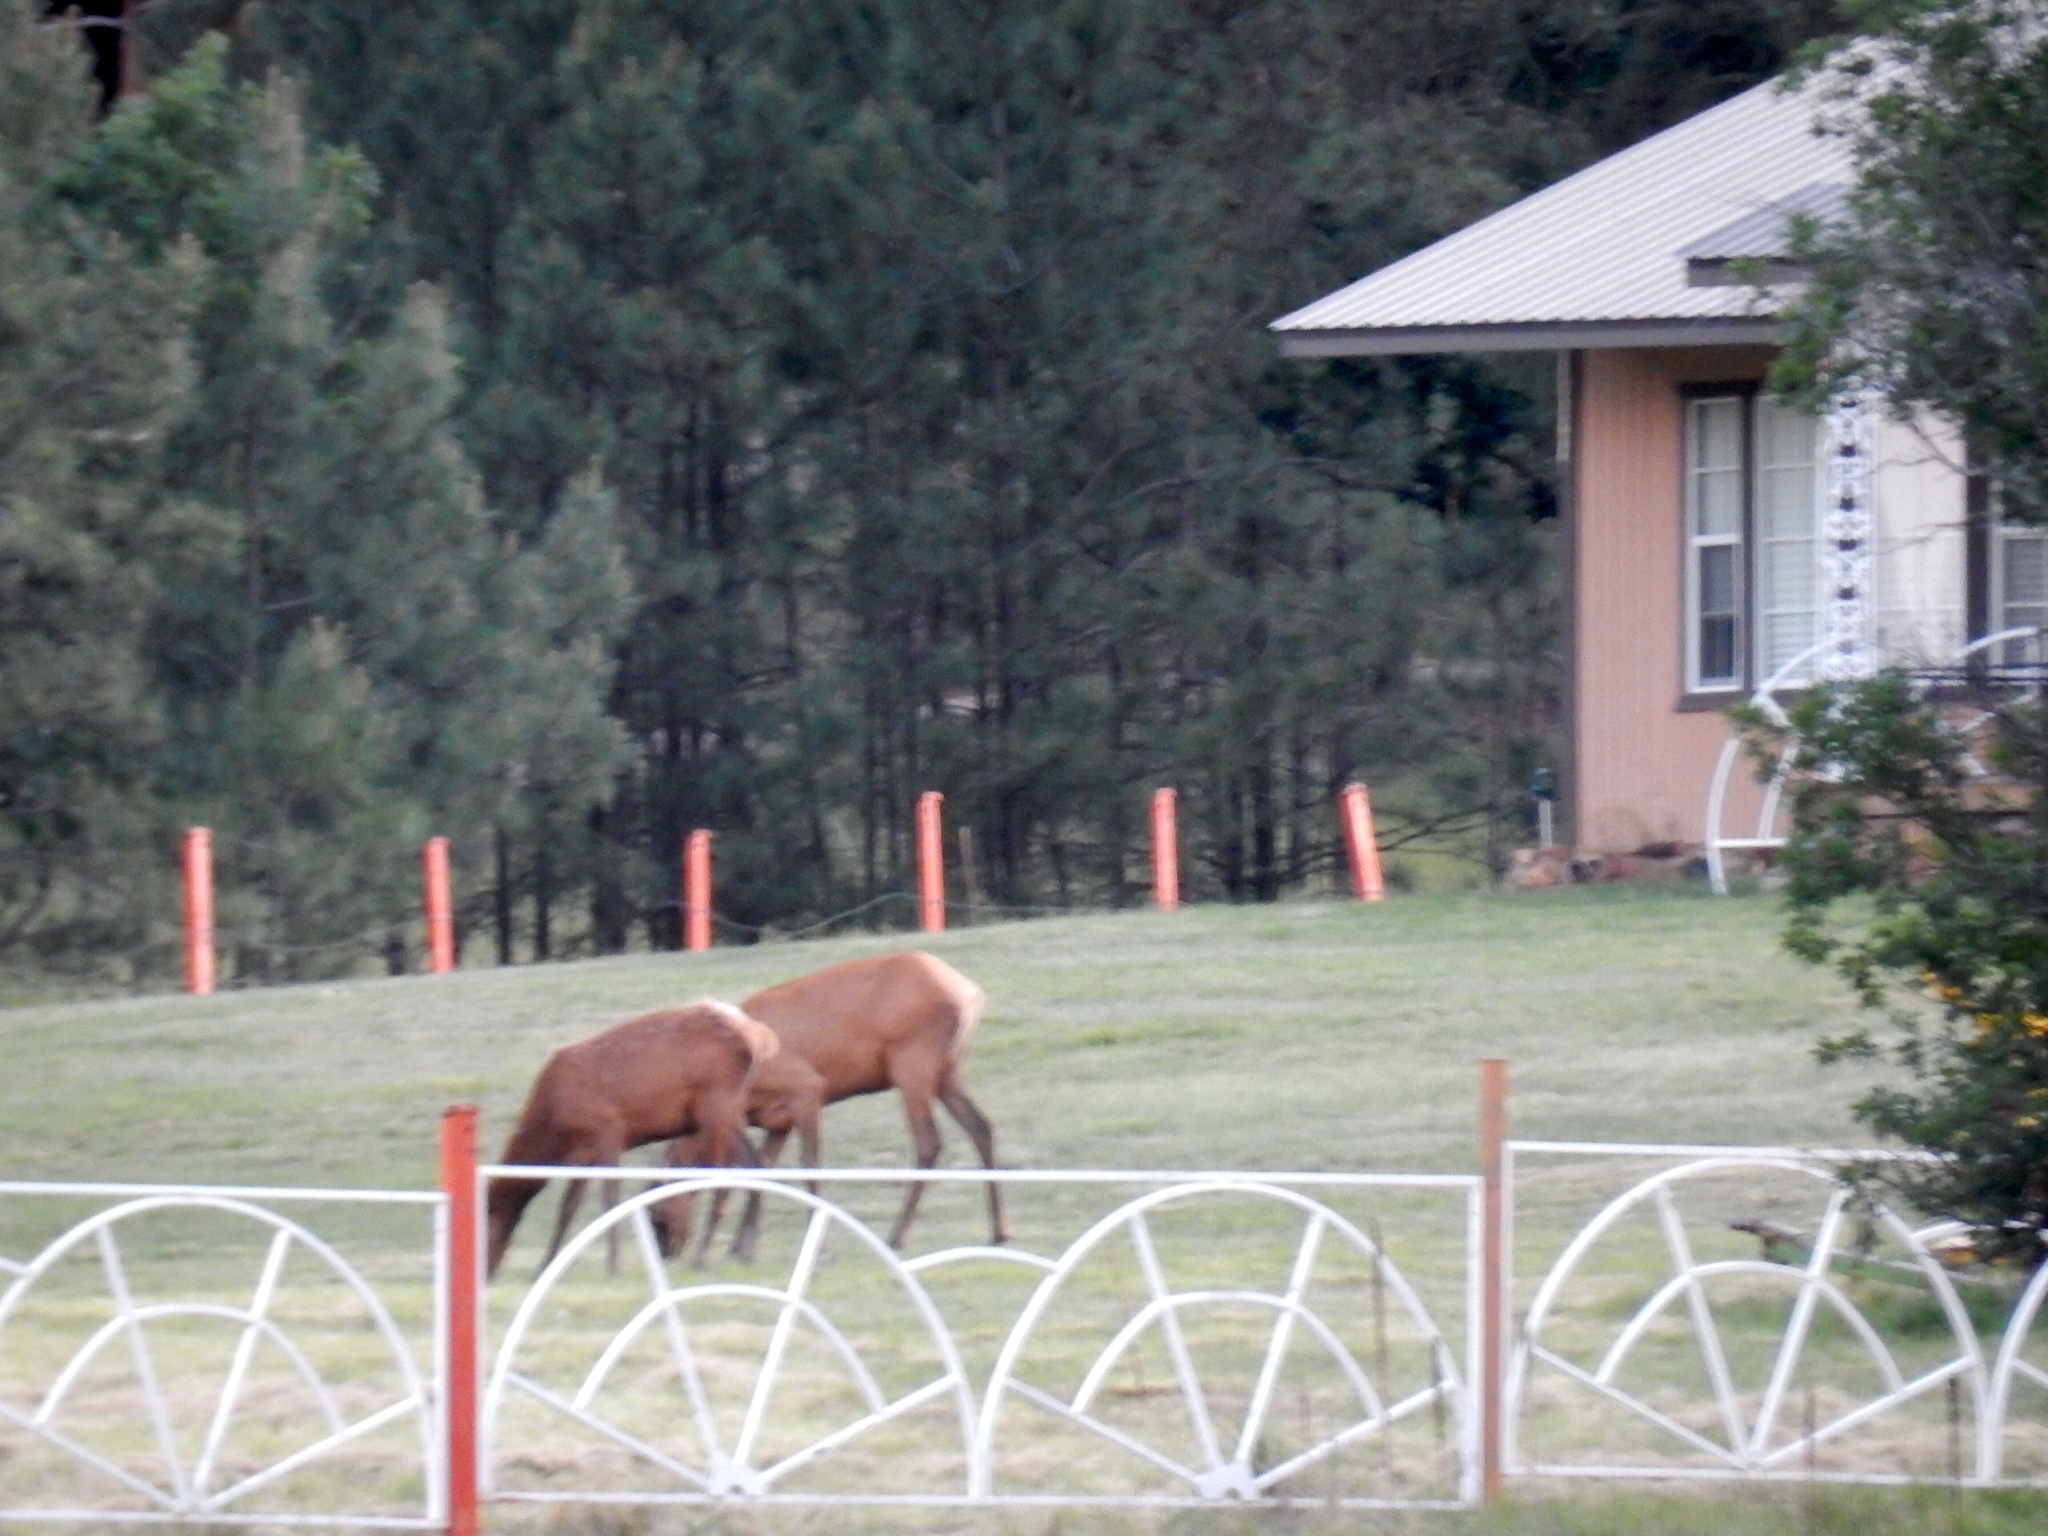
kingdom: Animalia
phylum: Chordata
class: Mammalia
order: Artiodactyla
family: Cervidae
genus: Cervus
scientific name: Cervus elaphus
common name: Red deer
